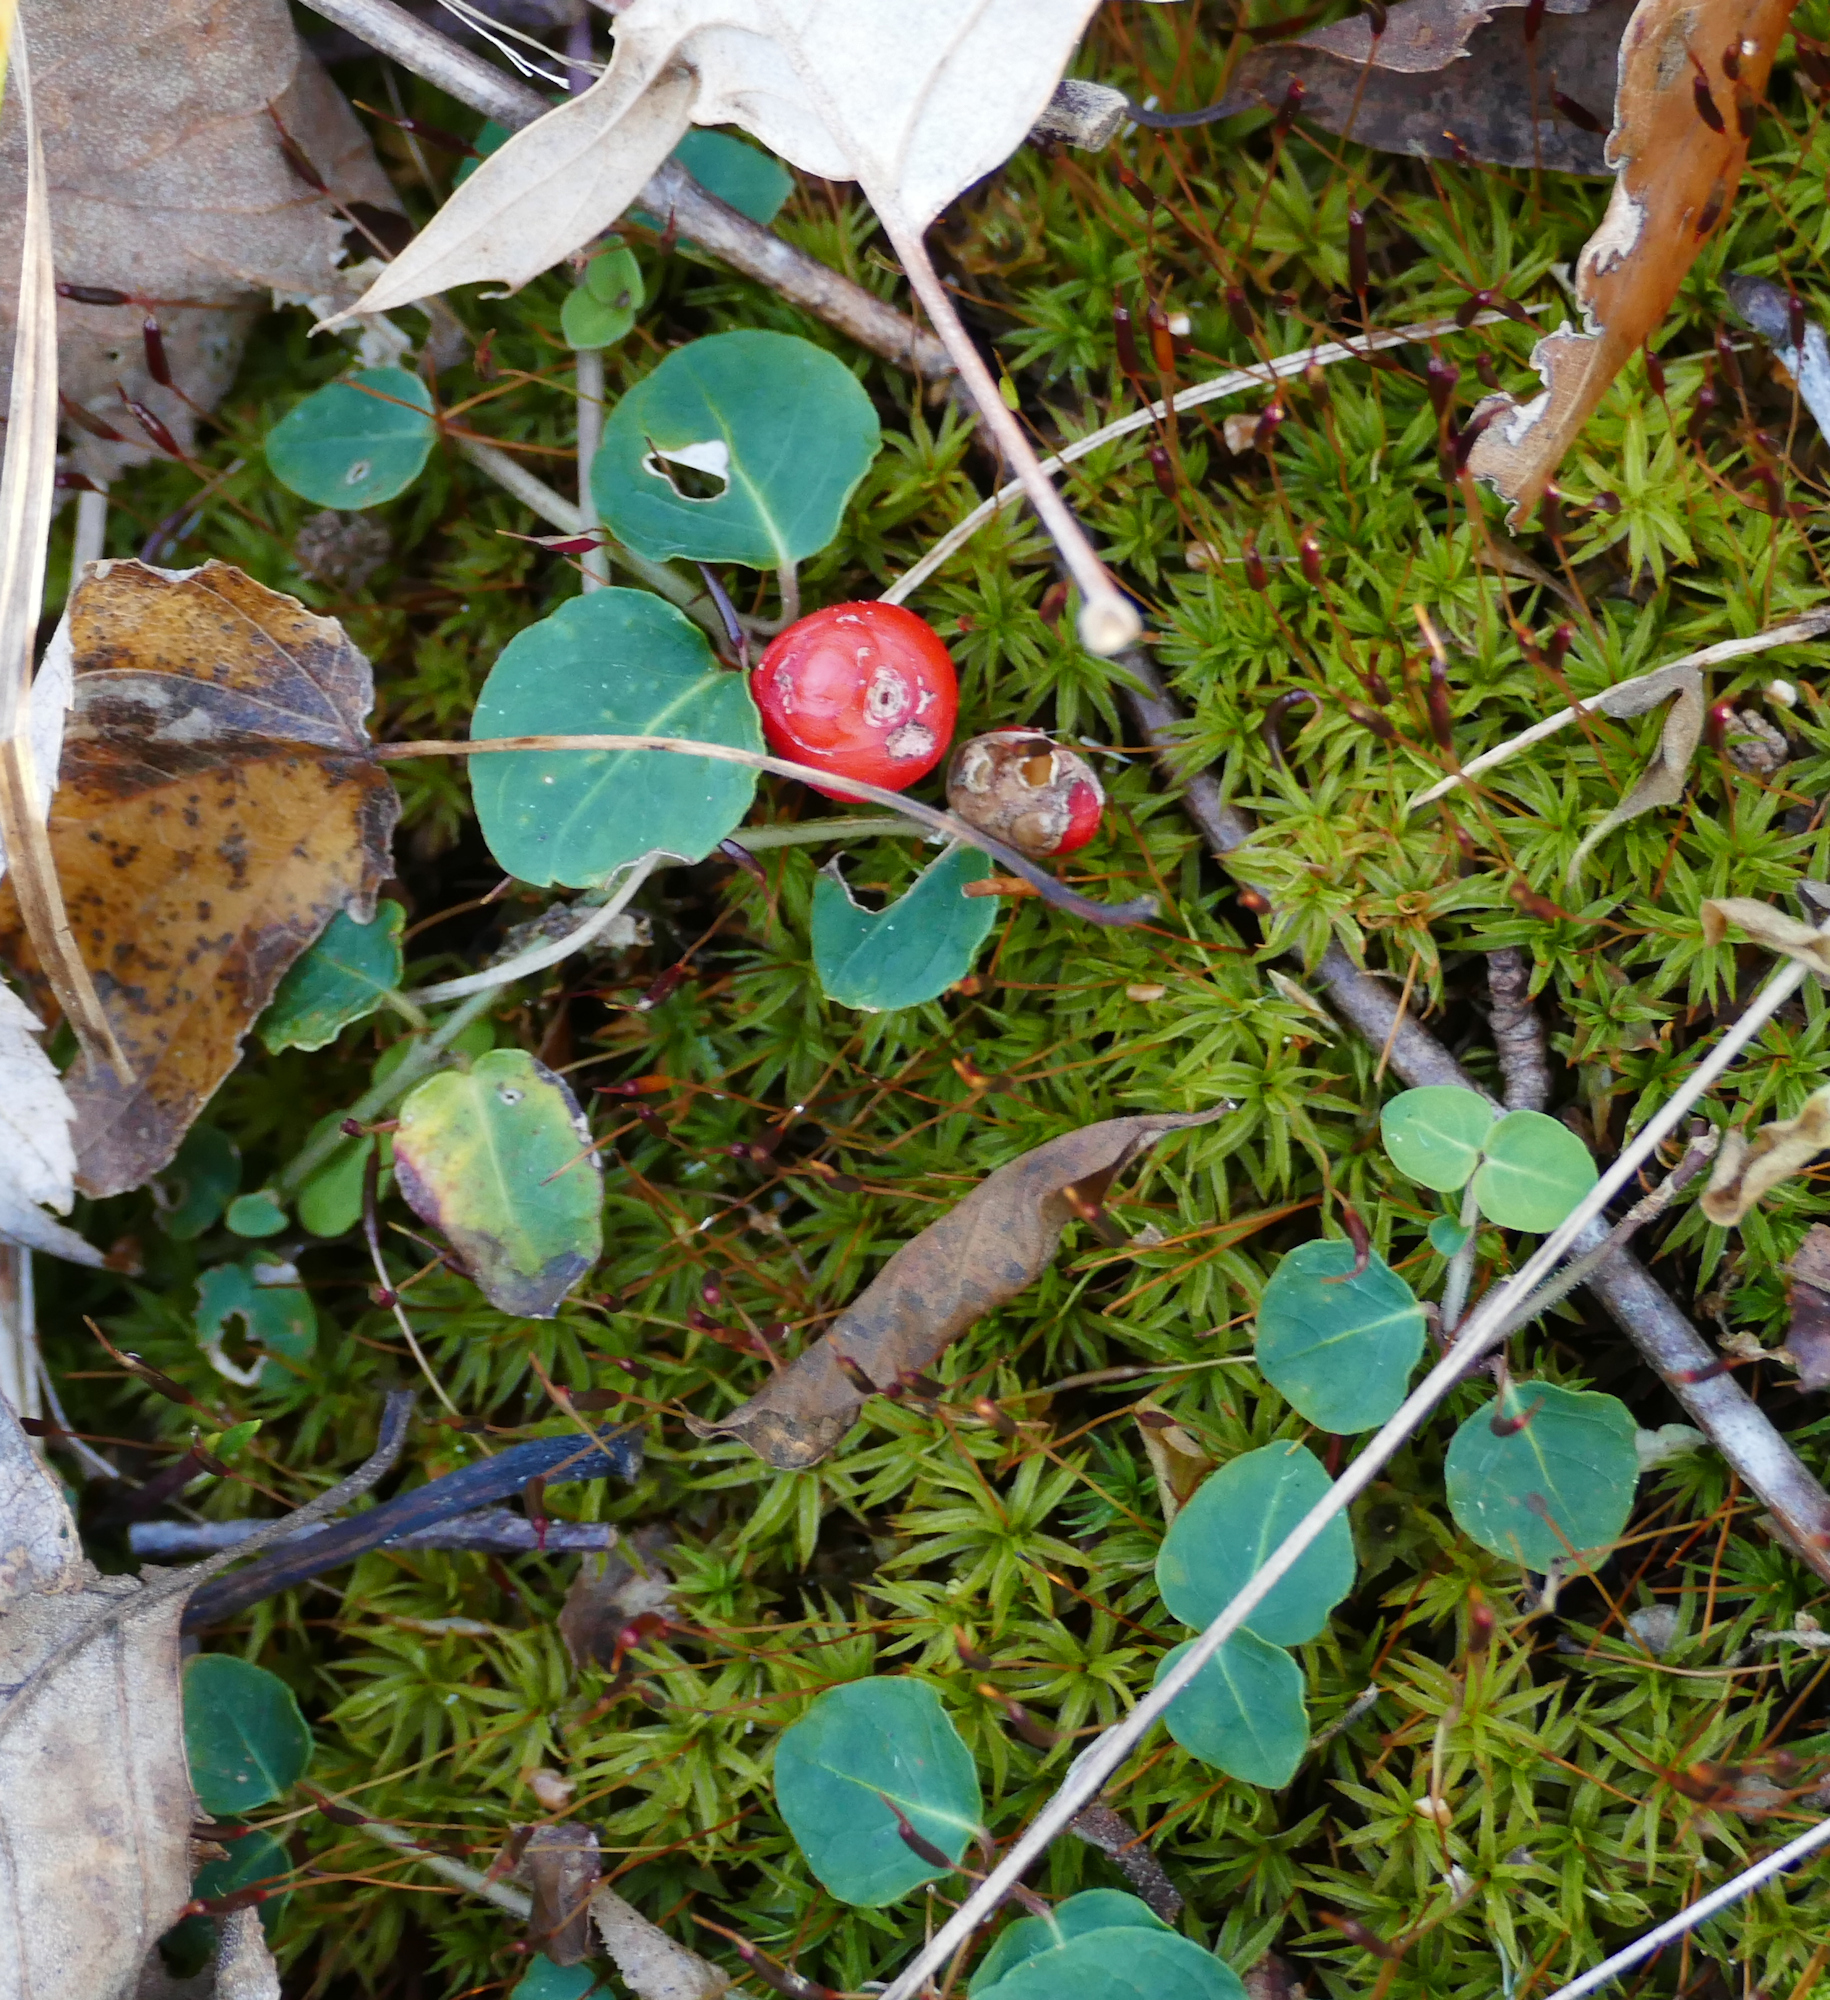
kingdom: Plantae
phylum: Tracheophyta
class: Magnoliopsida
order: Gentianales
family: Rubiaceae
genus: Mitchella
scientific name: Mitchella repens
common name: Partridge-berry
